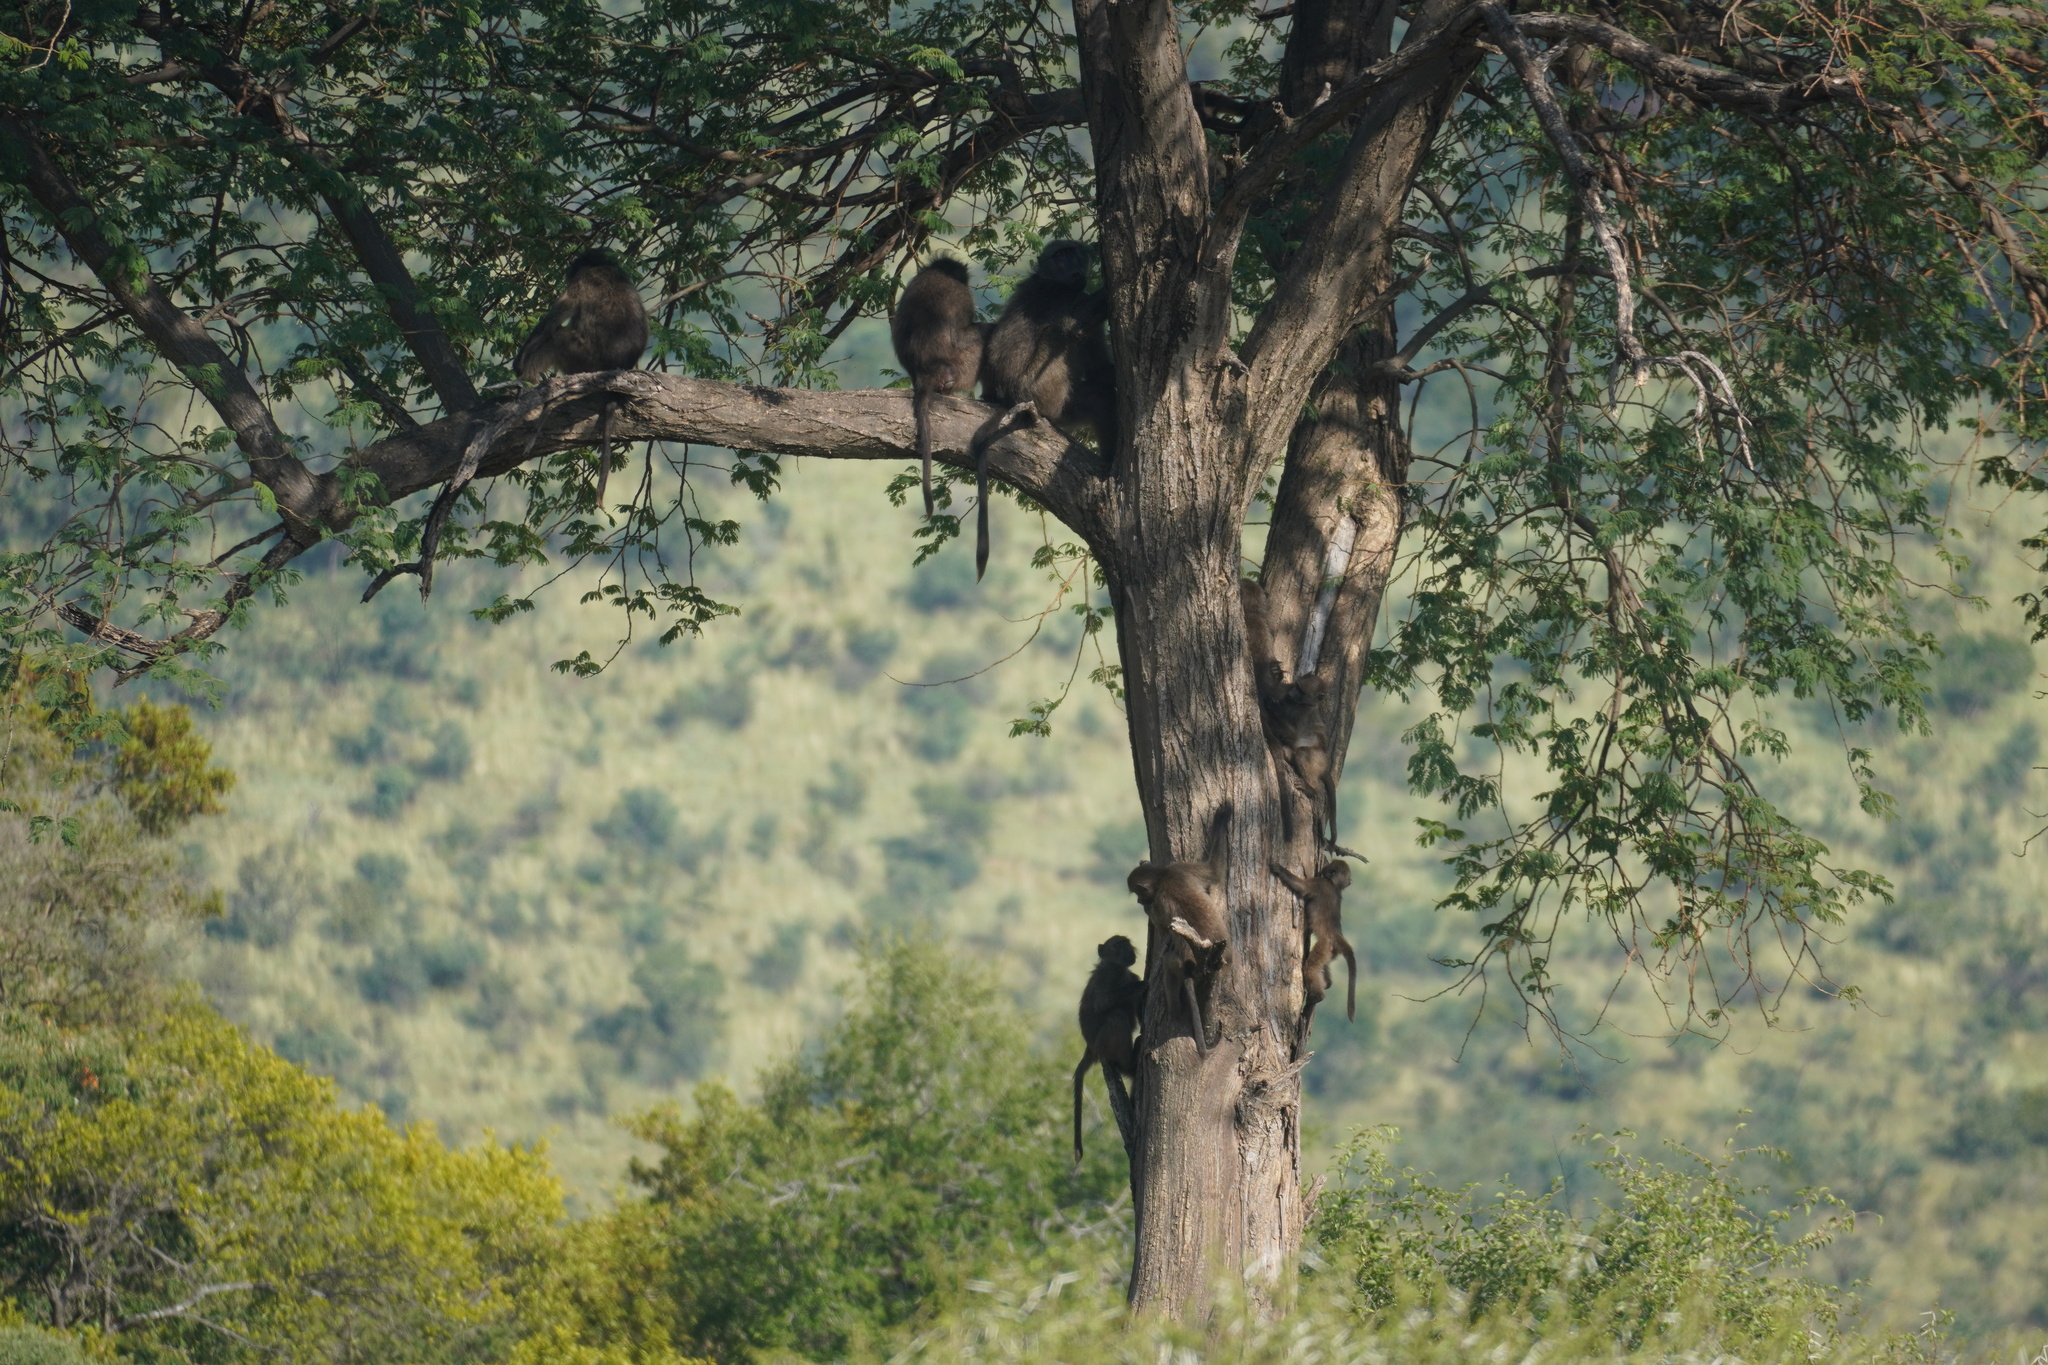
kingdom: Animalia
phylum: Chordata
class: Mammalia
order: Primates
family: Cercopithecidae
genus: Papio
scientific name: Papio ursinus
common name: Chacma baboon
